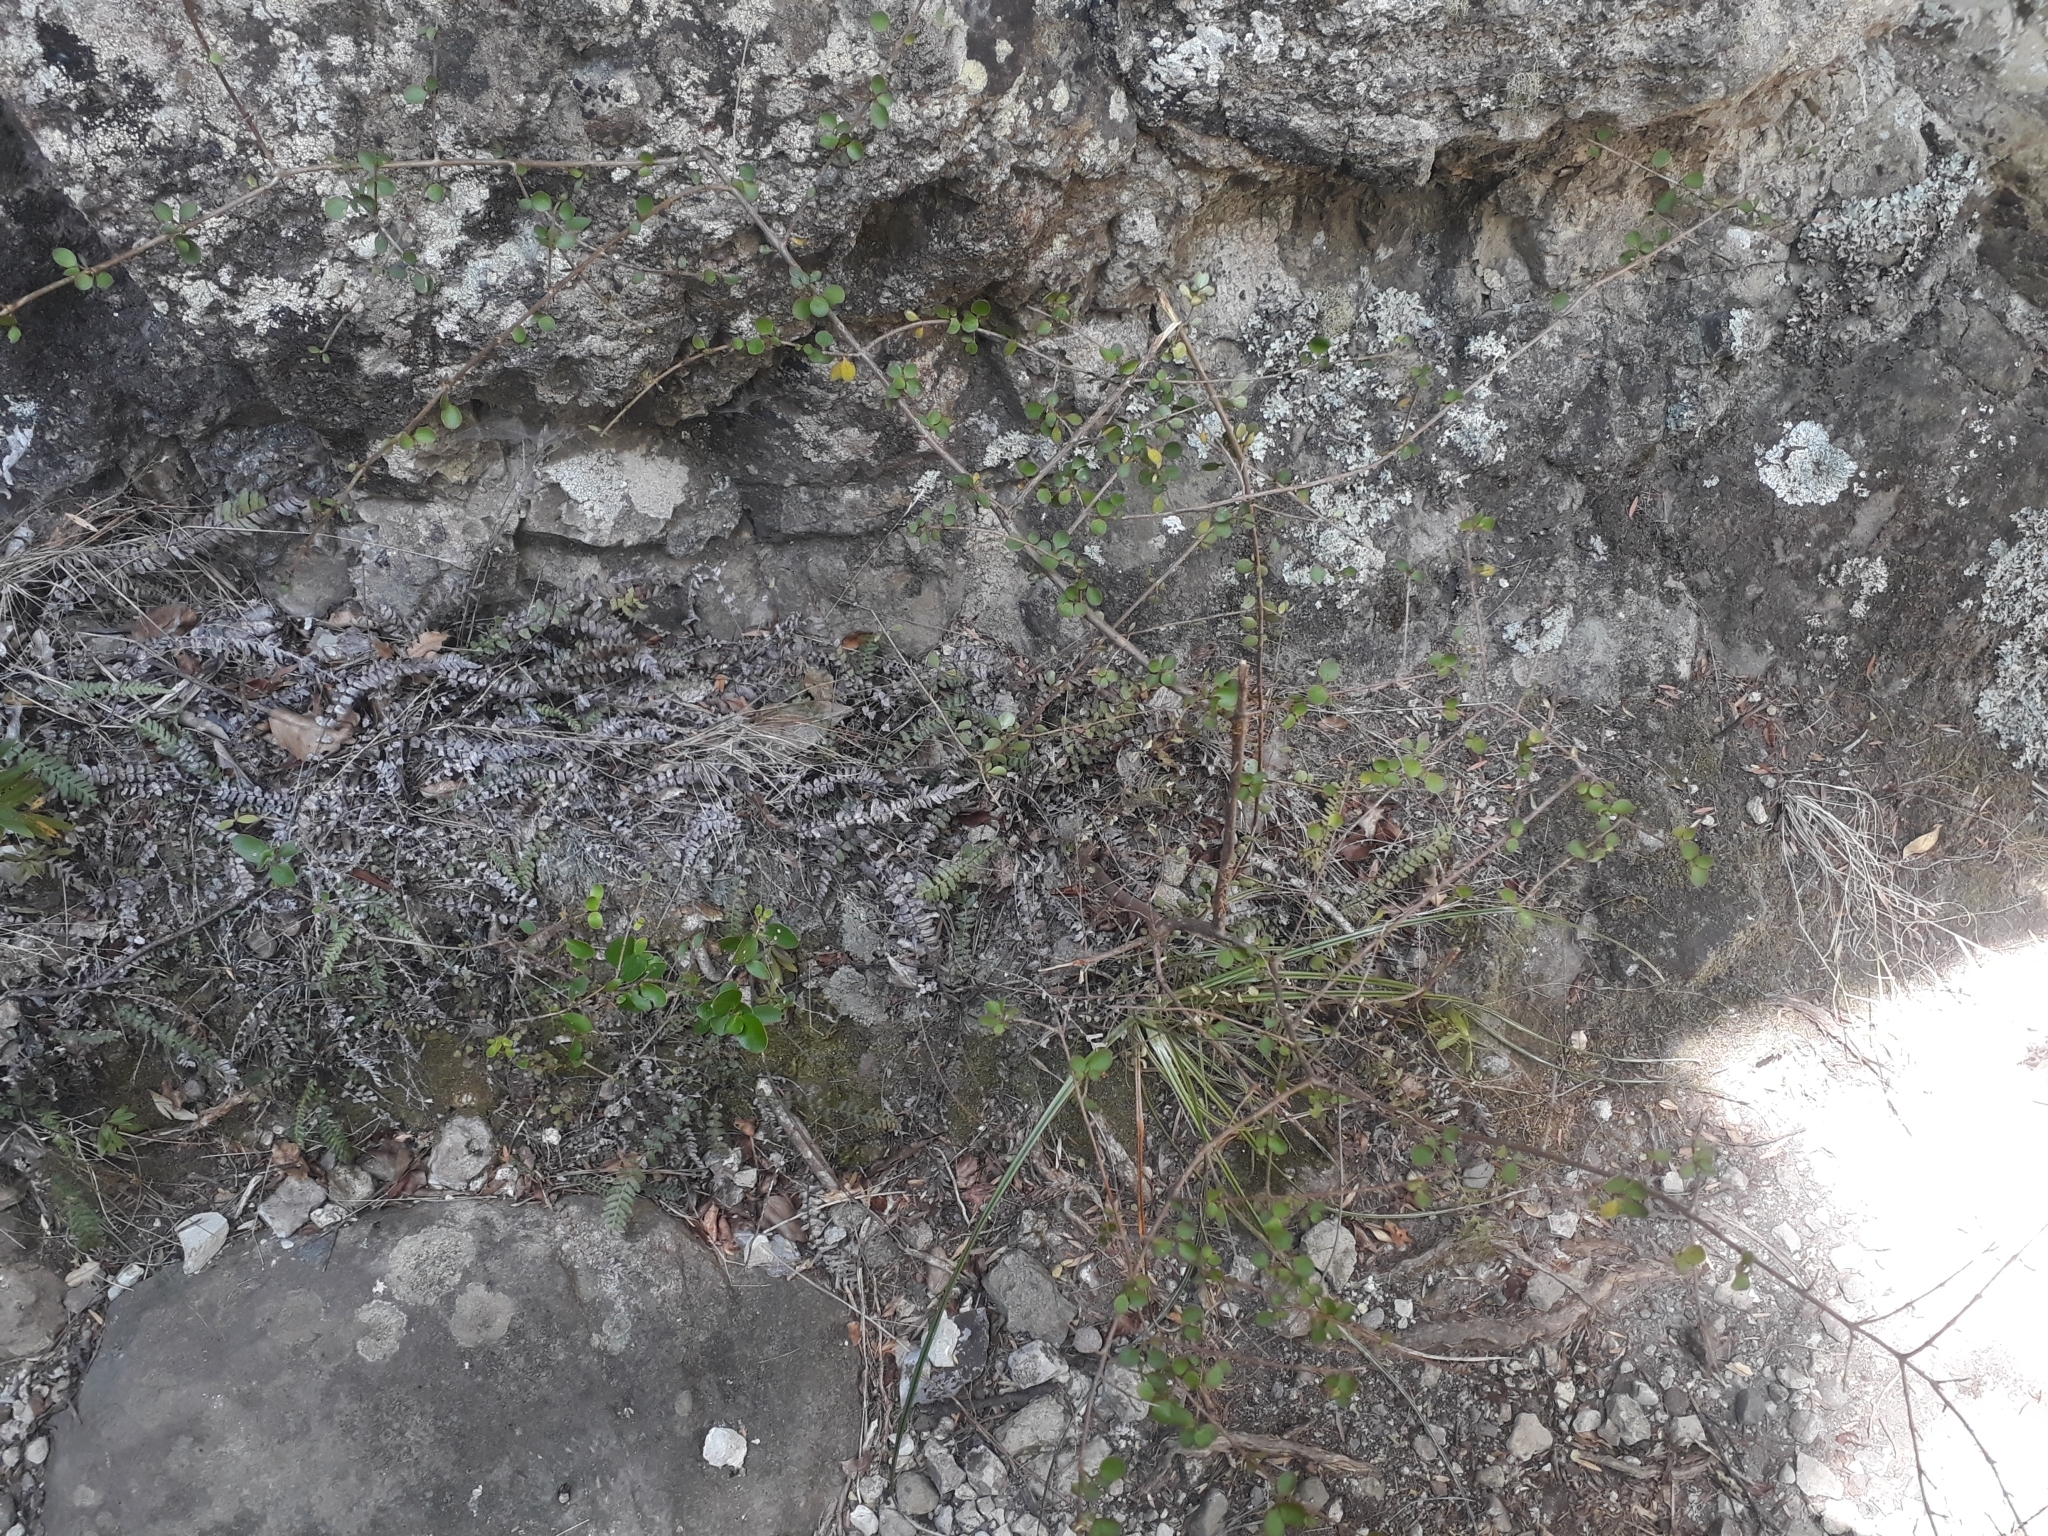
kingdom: Plantae
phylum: Tracheophyta
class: Magnoliopsida
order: Gentianales
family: Rubiaceae
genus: Coprosma
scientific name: Coprosma neglecta
